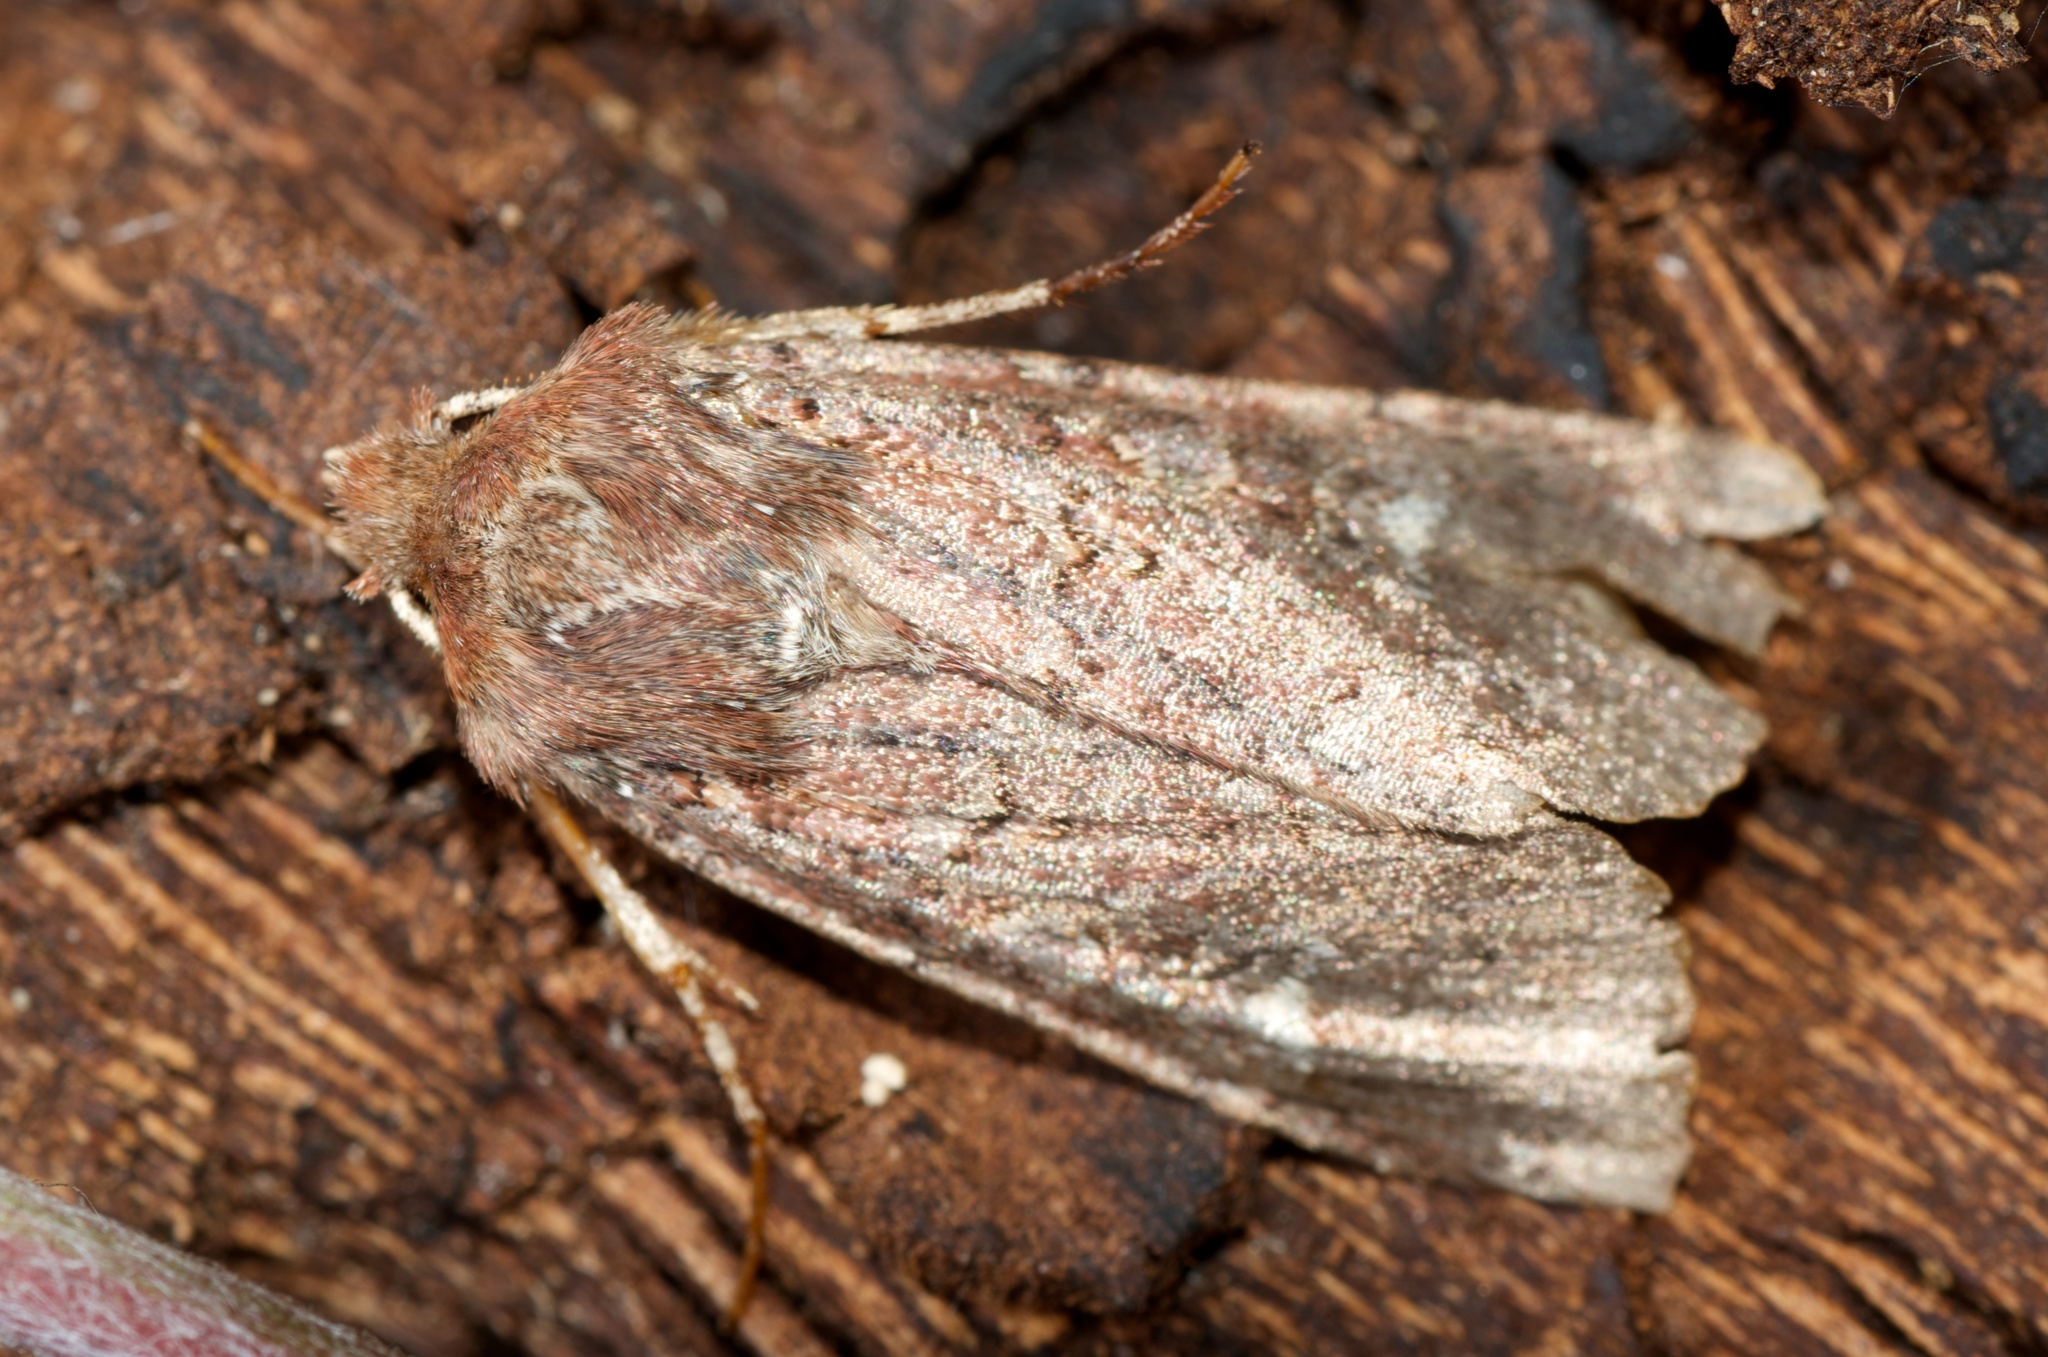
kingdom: Animalia
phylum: Arthropoda
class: Insecta
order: Lepidoptera
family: Noctuidae
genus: Ichneutica
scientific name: Ichneutica agorastis
